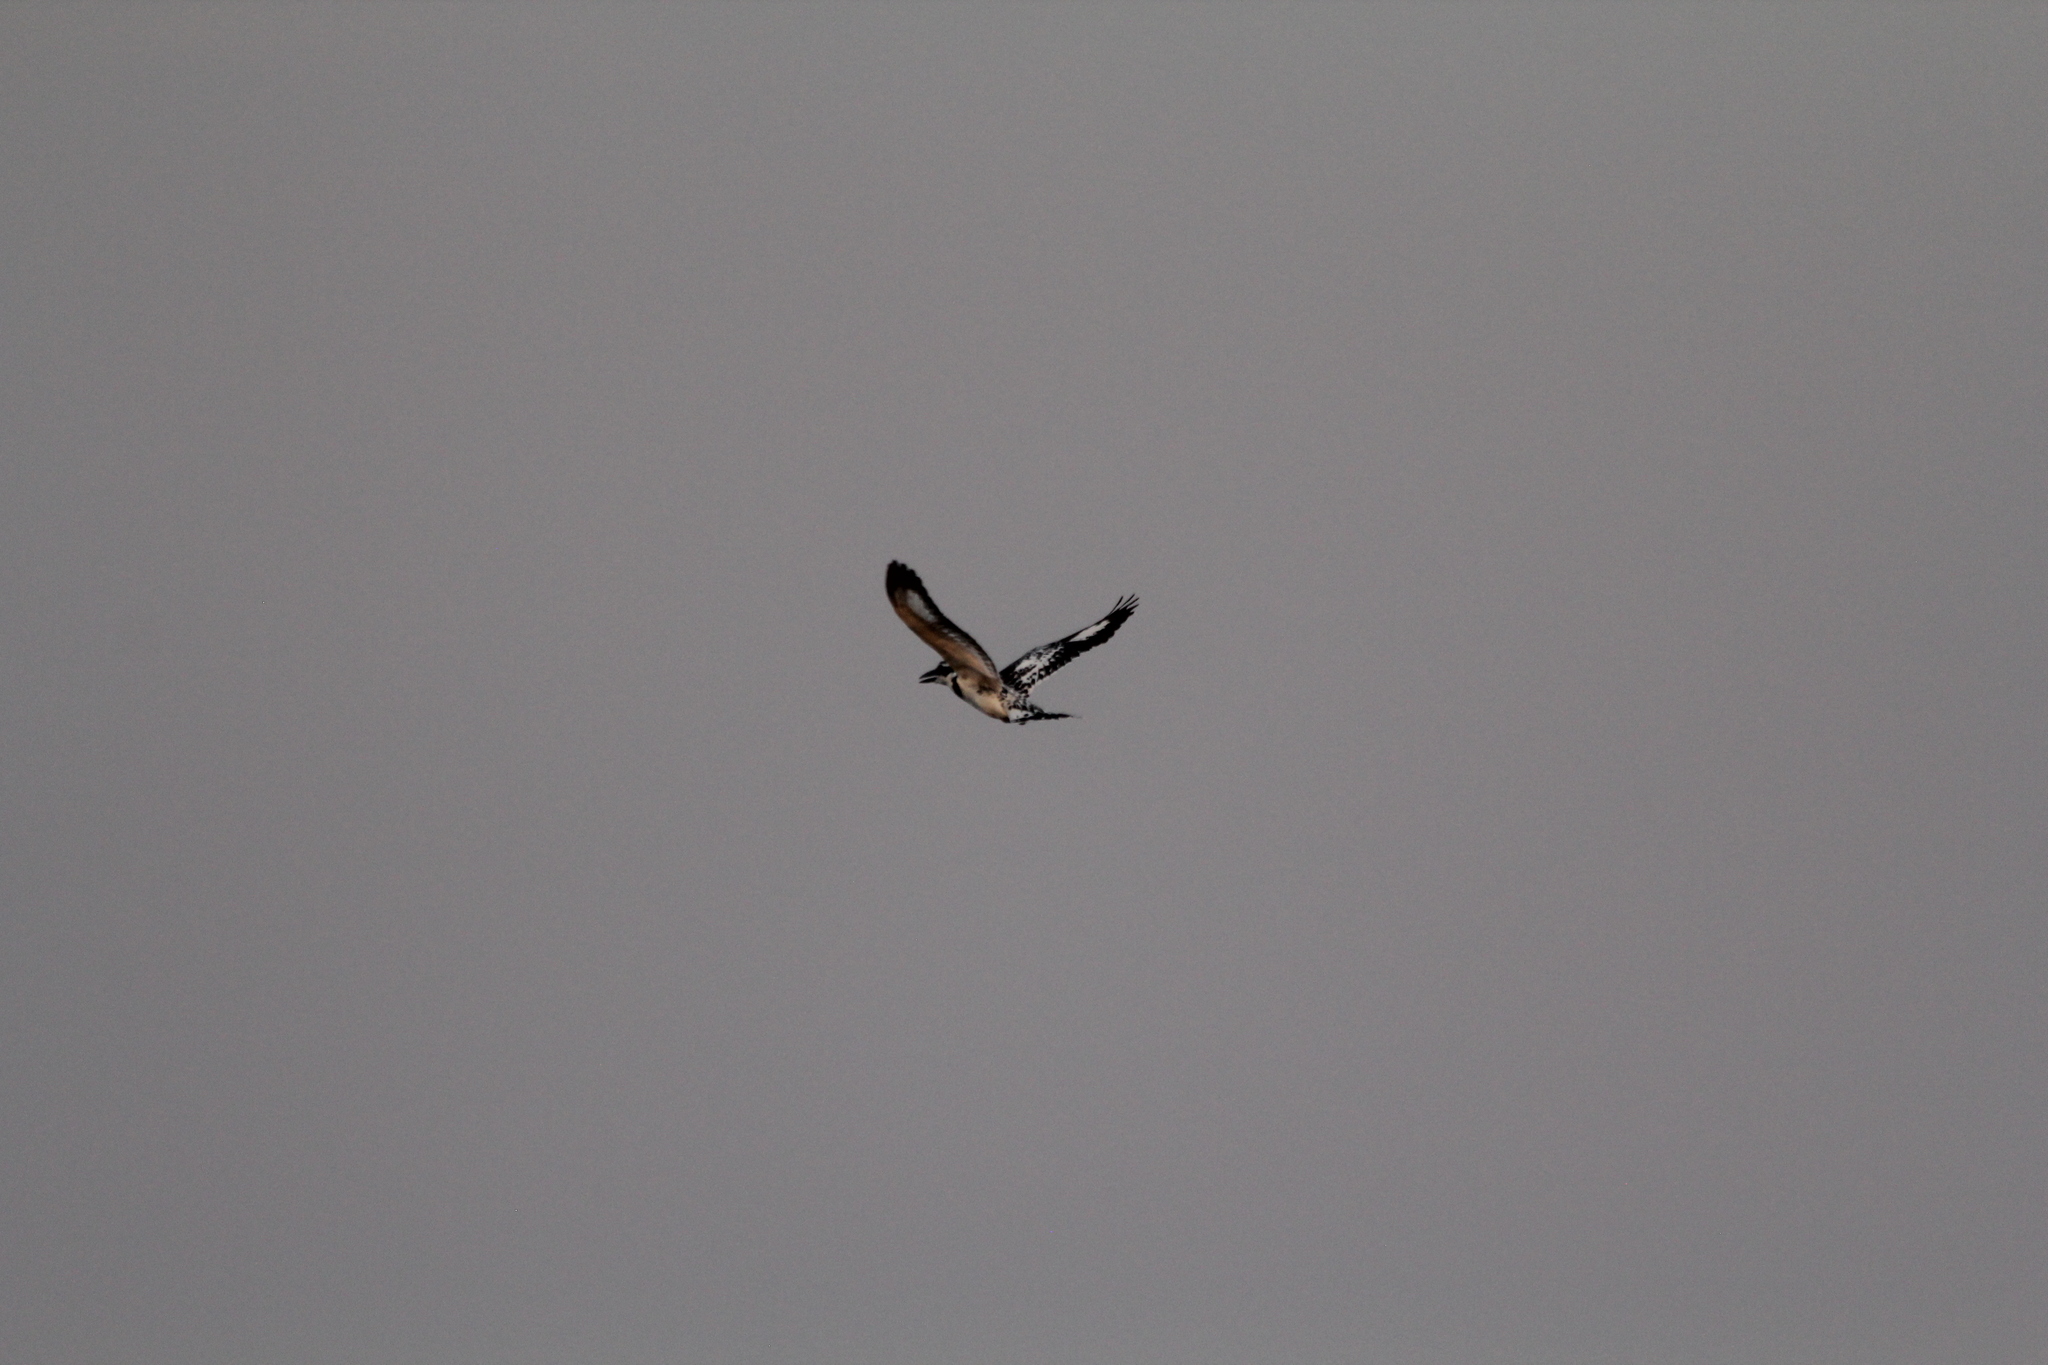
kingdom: Animalia
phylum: Chordata
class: Aves
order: Coraciiformes
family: Alcedinidae
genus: Ceryle
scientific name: Ceryle rudis
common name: Pied kingfisher
